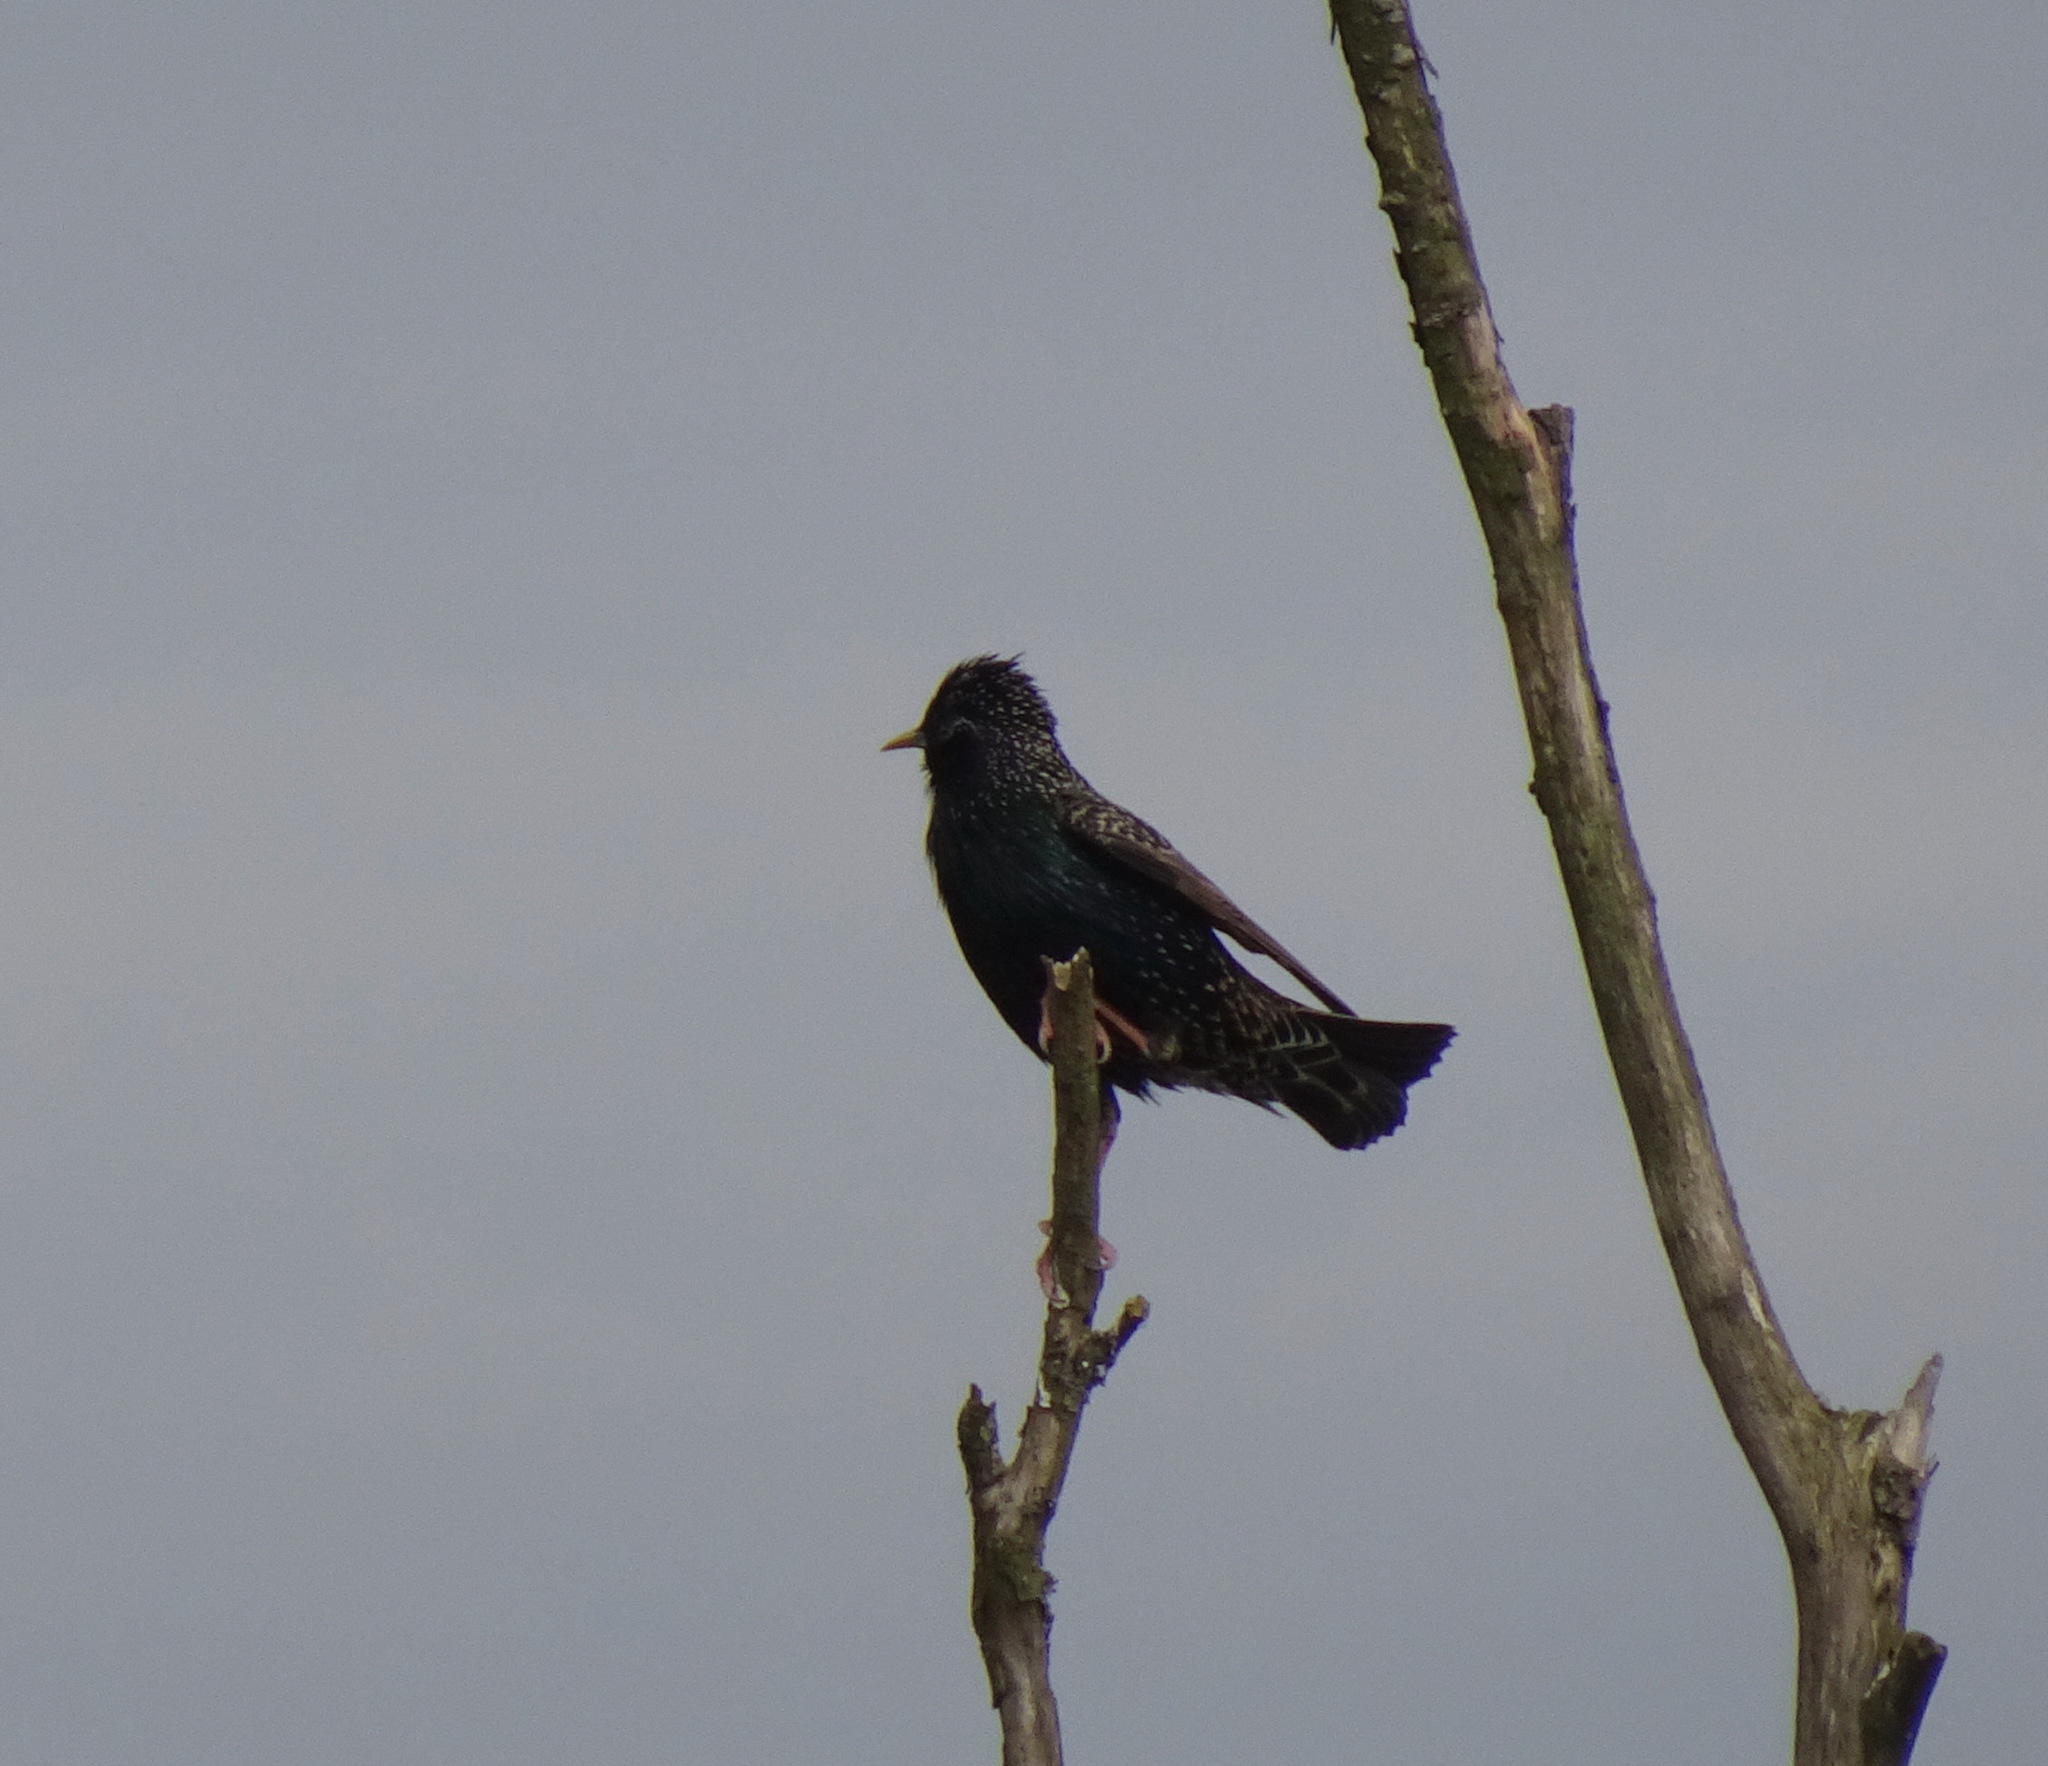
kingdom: Animalia
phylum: Chordata
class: Aves
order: Passeriformes
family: Sturnidae
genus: Sturnus
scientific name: Sturnus vulgaris
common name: Common starling
